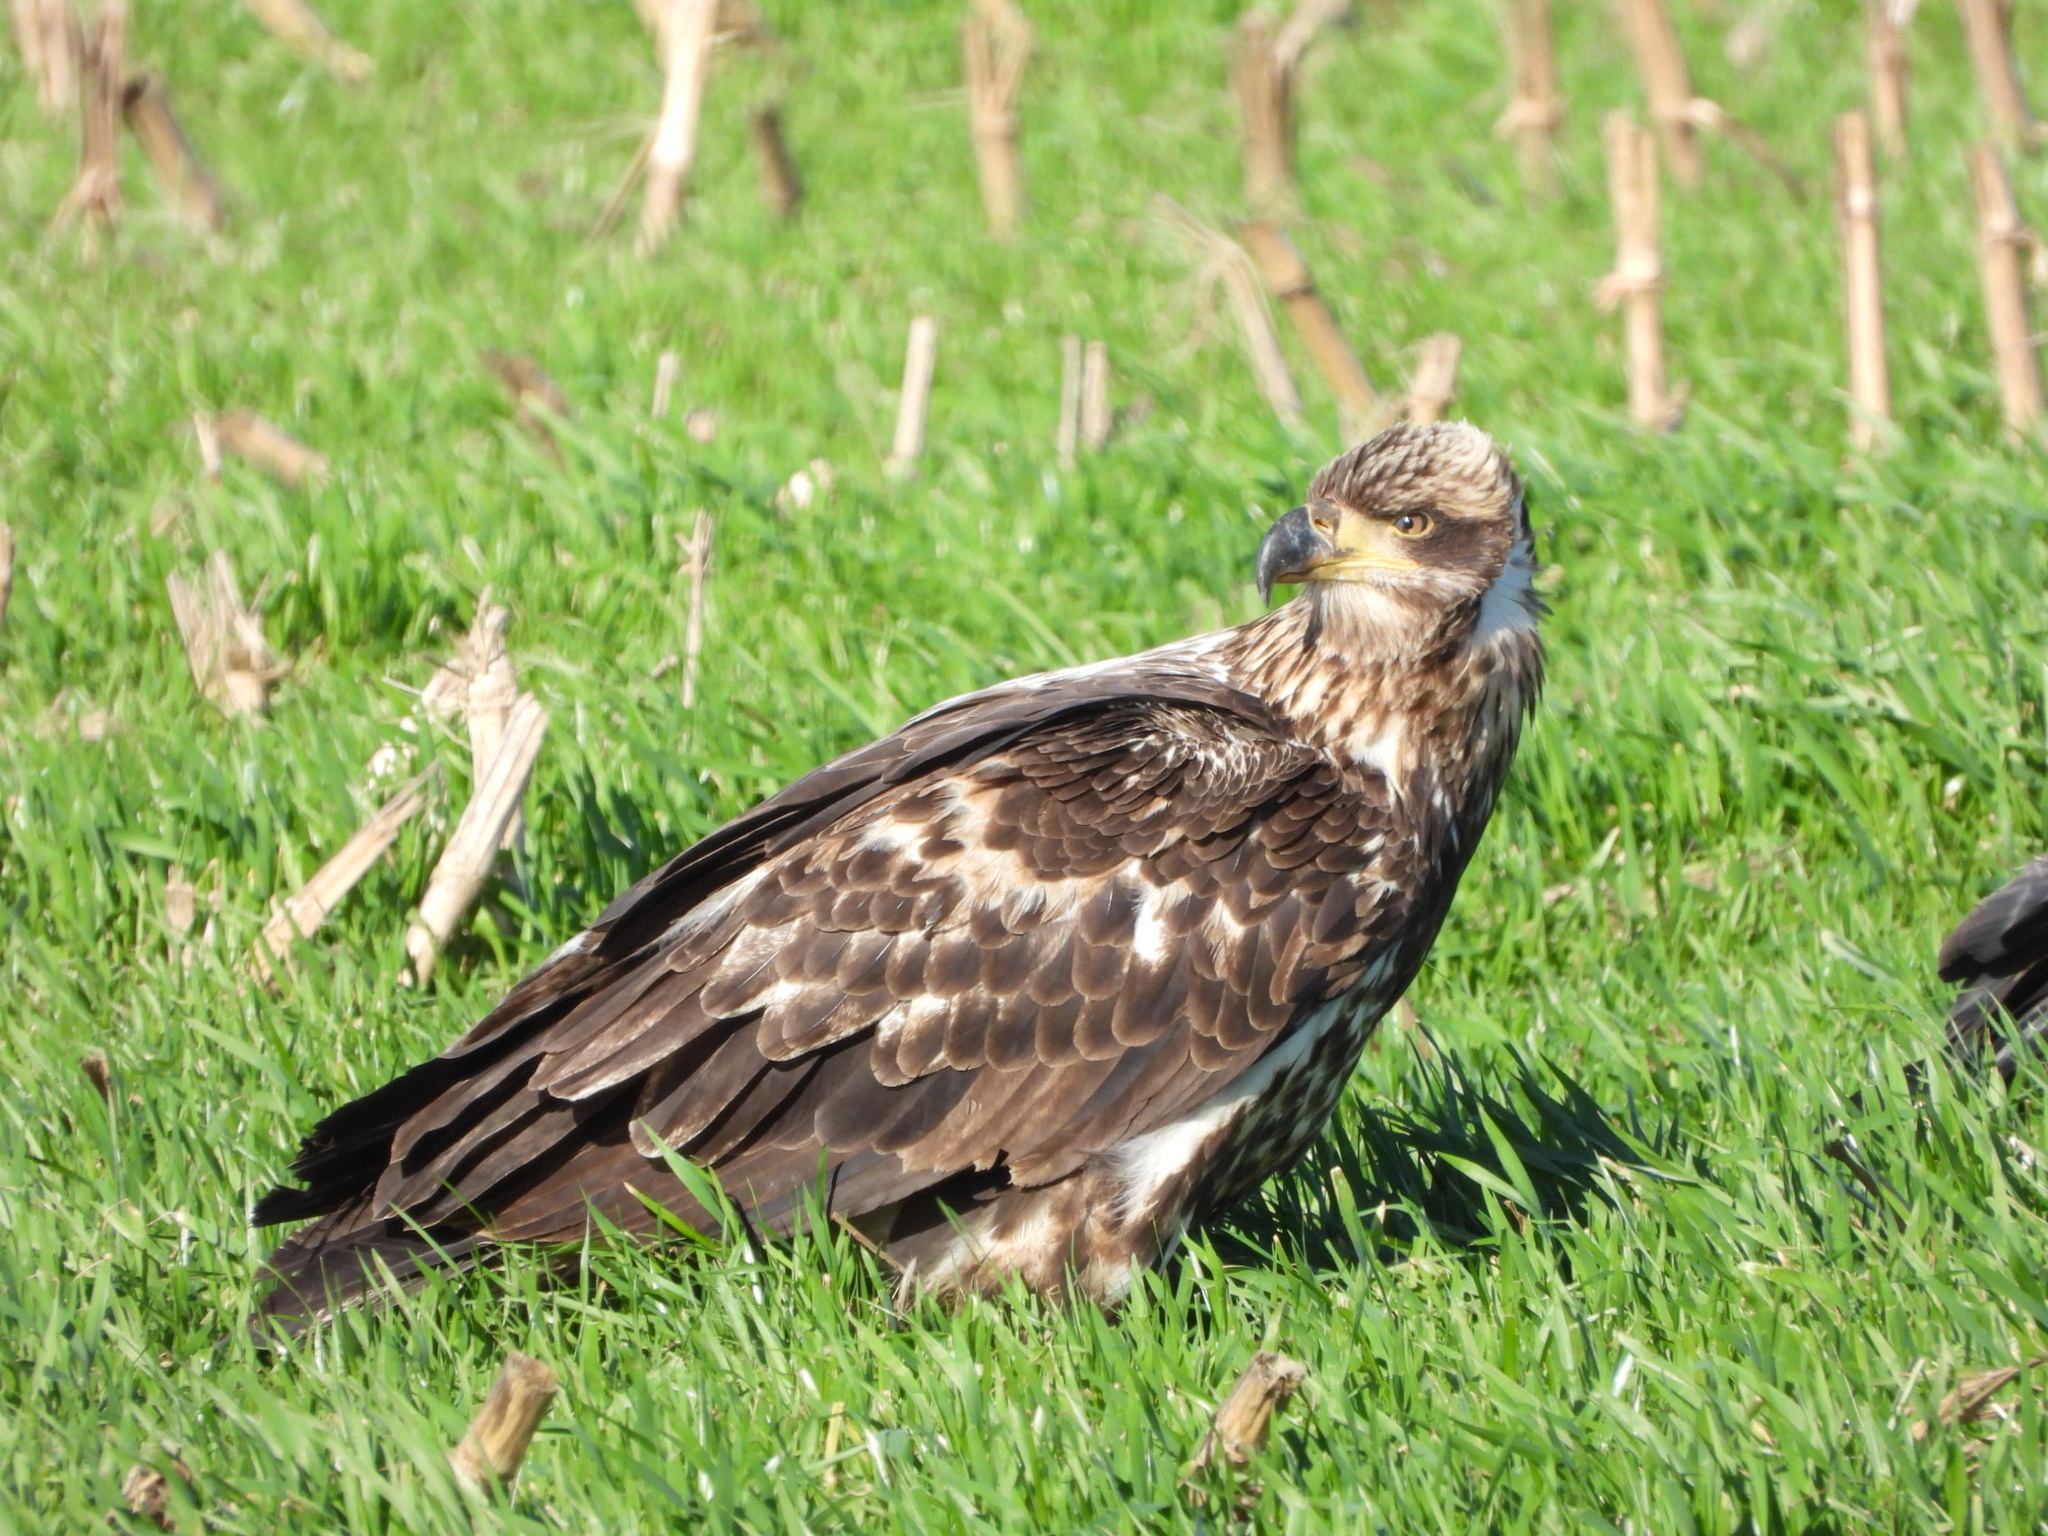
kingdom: Animalia
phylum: Chordata
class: Aves
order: Accipitriformes
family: Accipitridae
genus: Haliaeetus
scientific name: Haliaeetus leucocephalus
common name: Bald eagle
